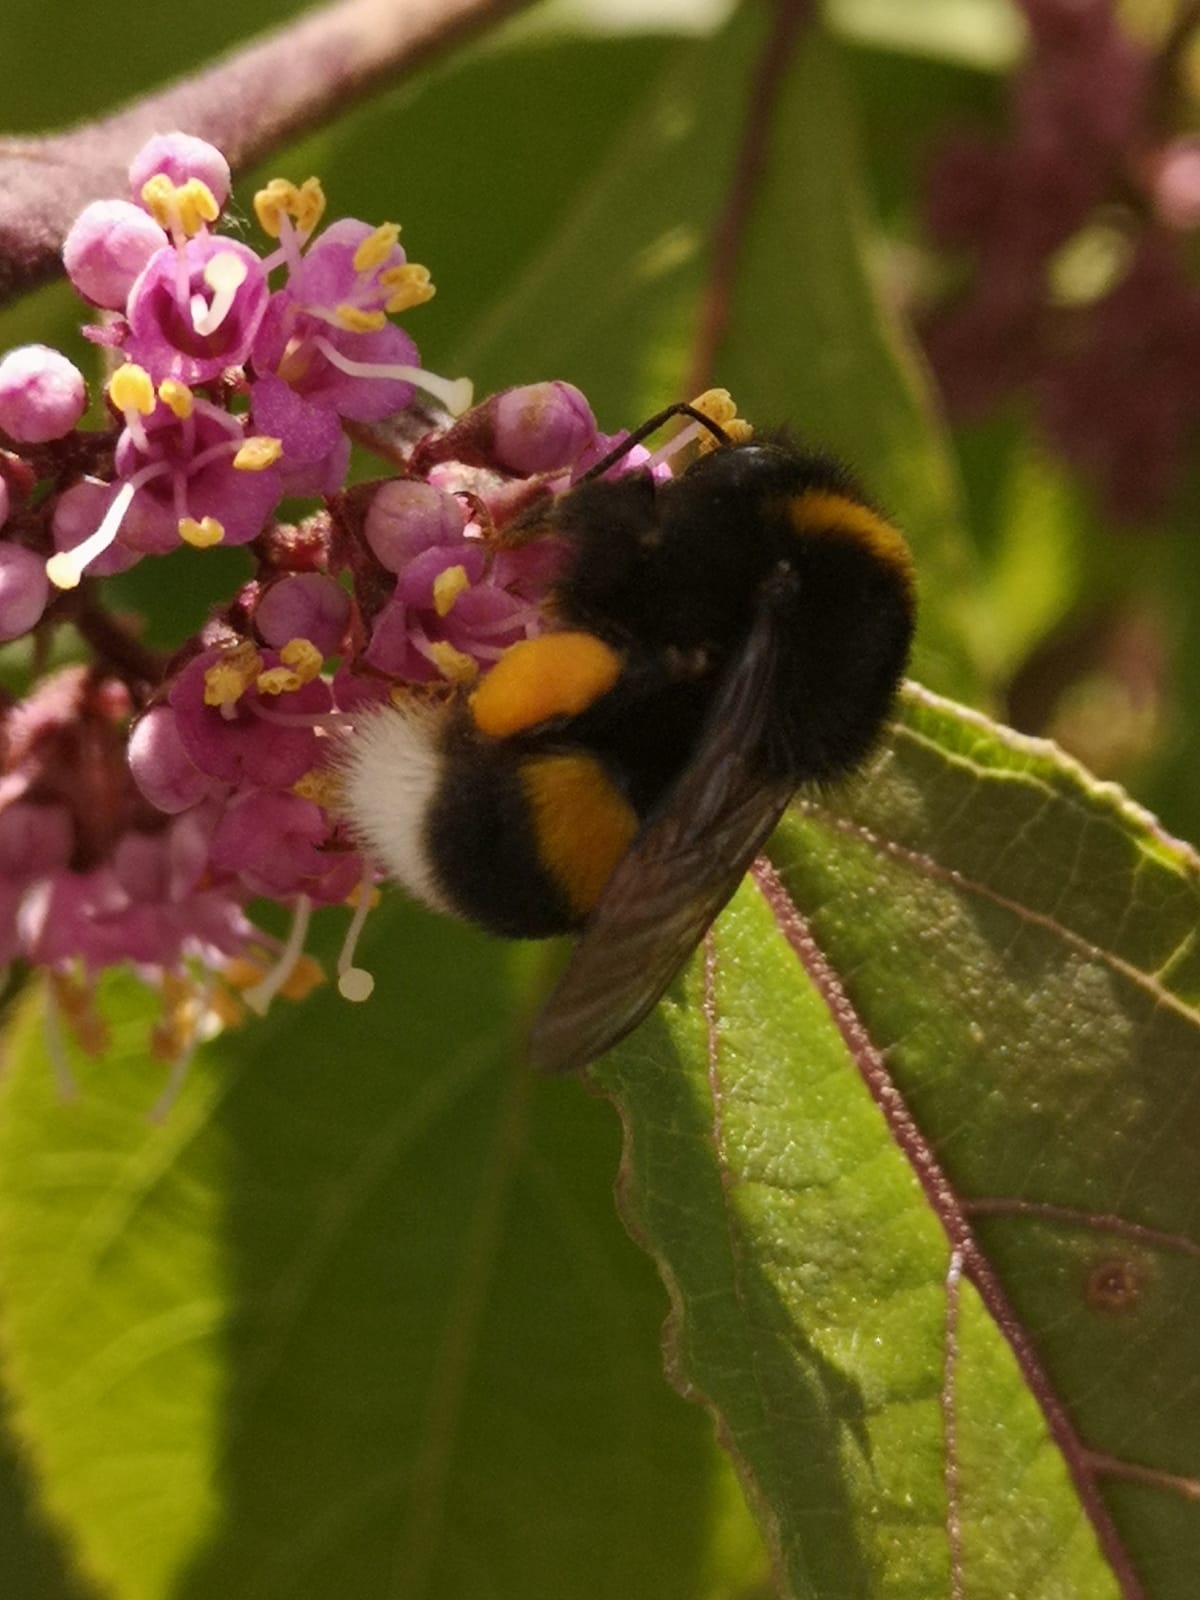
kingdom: Animalia
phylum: Arthropoda
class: Insecta
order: Hymenoptera
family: Apidae
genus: Bombus
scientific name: Bombus terrestris
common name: Buff-tailed bumblebee
